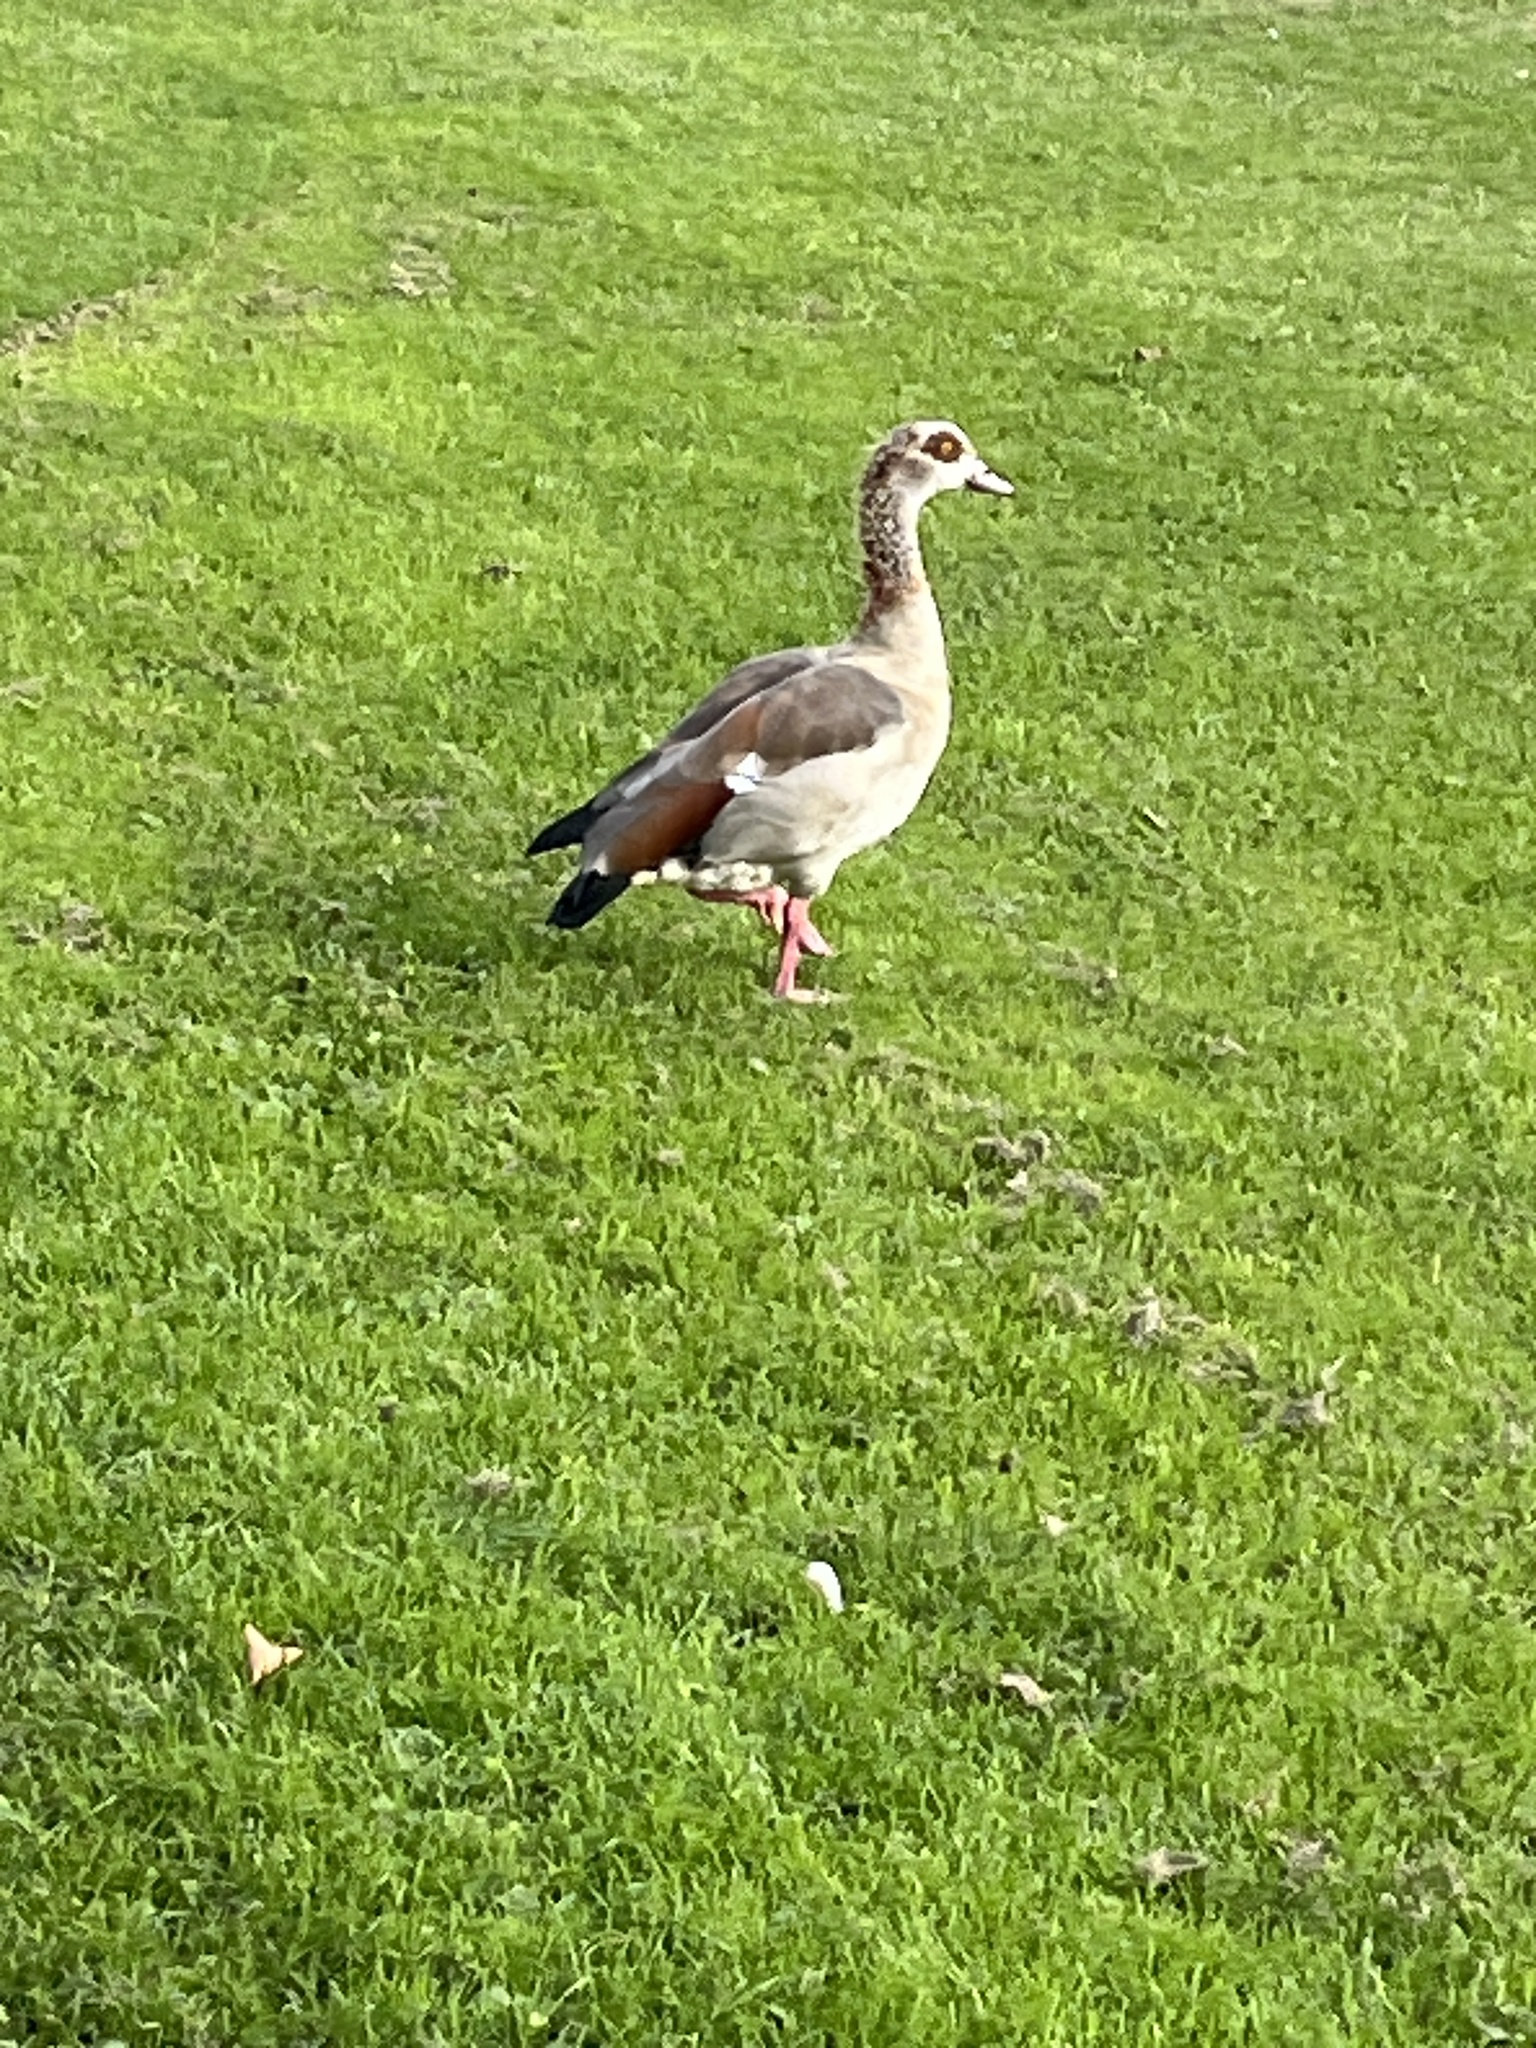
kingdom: Animalia
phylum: Chordata
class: Aves
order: Anseriformes
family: Anatidae
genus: Alopochen
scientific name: Alopochen aegyptiaca
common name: Egyptian goose
